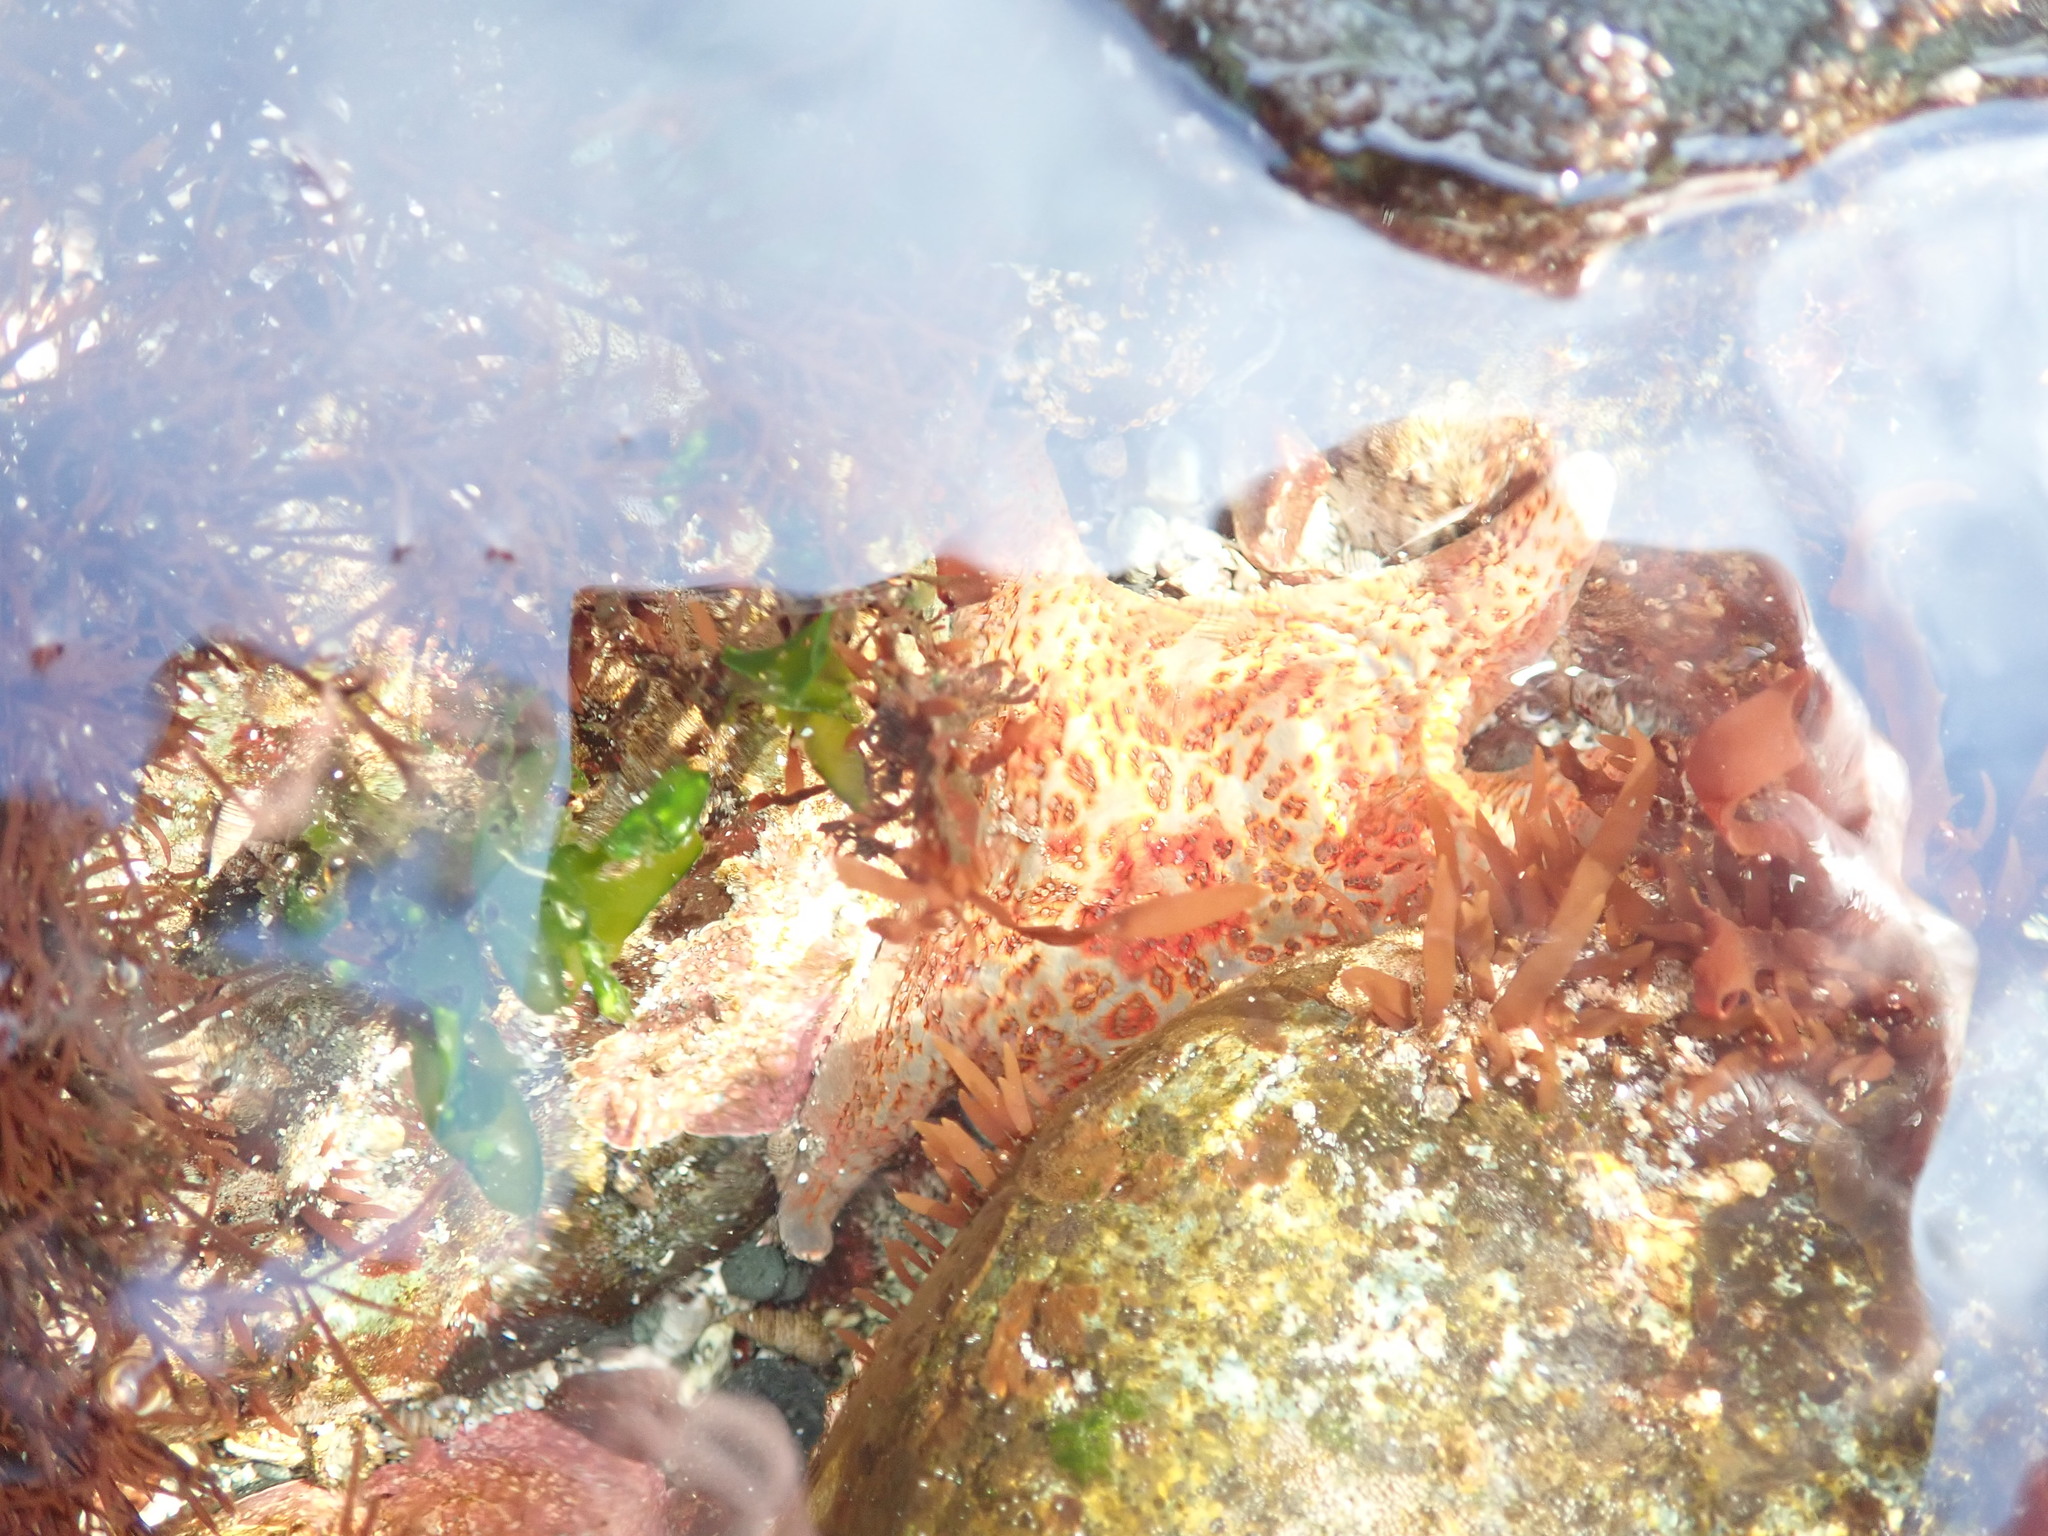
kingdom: Animalia
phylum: Echinodermata
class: Asteroidea
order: Valvatida
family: Asteropseidae
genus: Dermasterias
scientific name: Dermasterias imbricata
